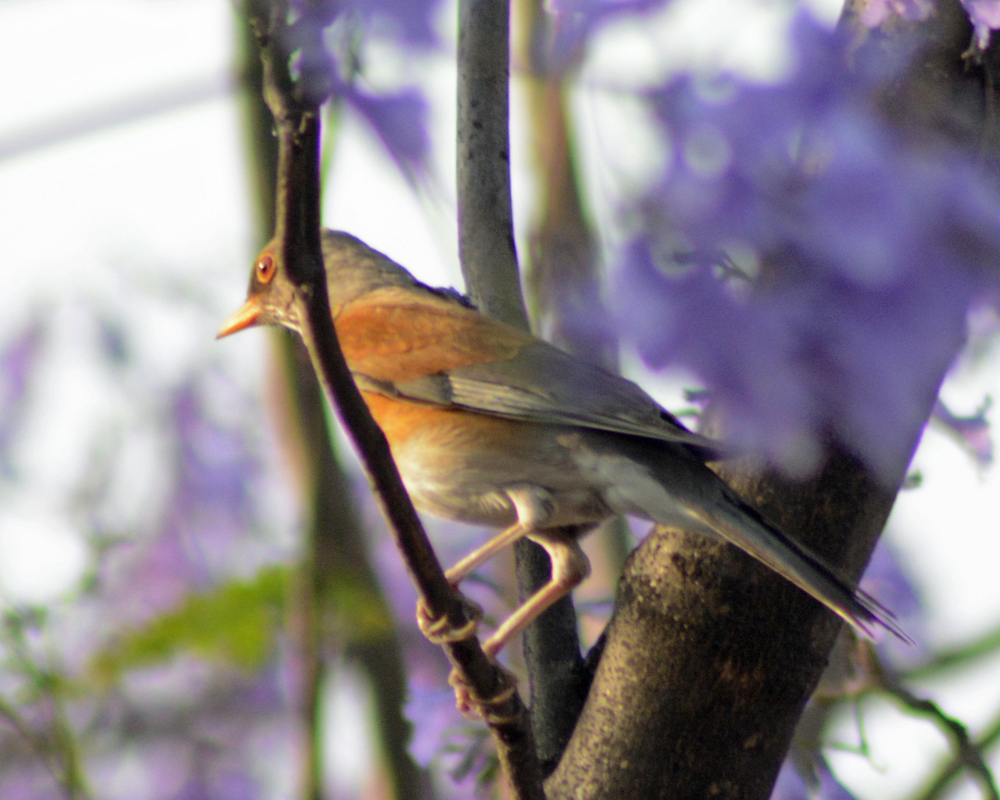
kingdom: Animalia
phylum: Chordata
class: Aves
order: Passeriformes
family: Turdidae
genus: Turdus
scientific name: Turdus rufopalliatus
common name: Rufous-backed robin
